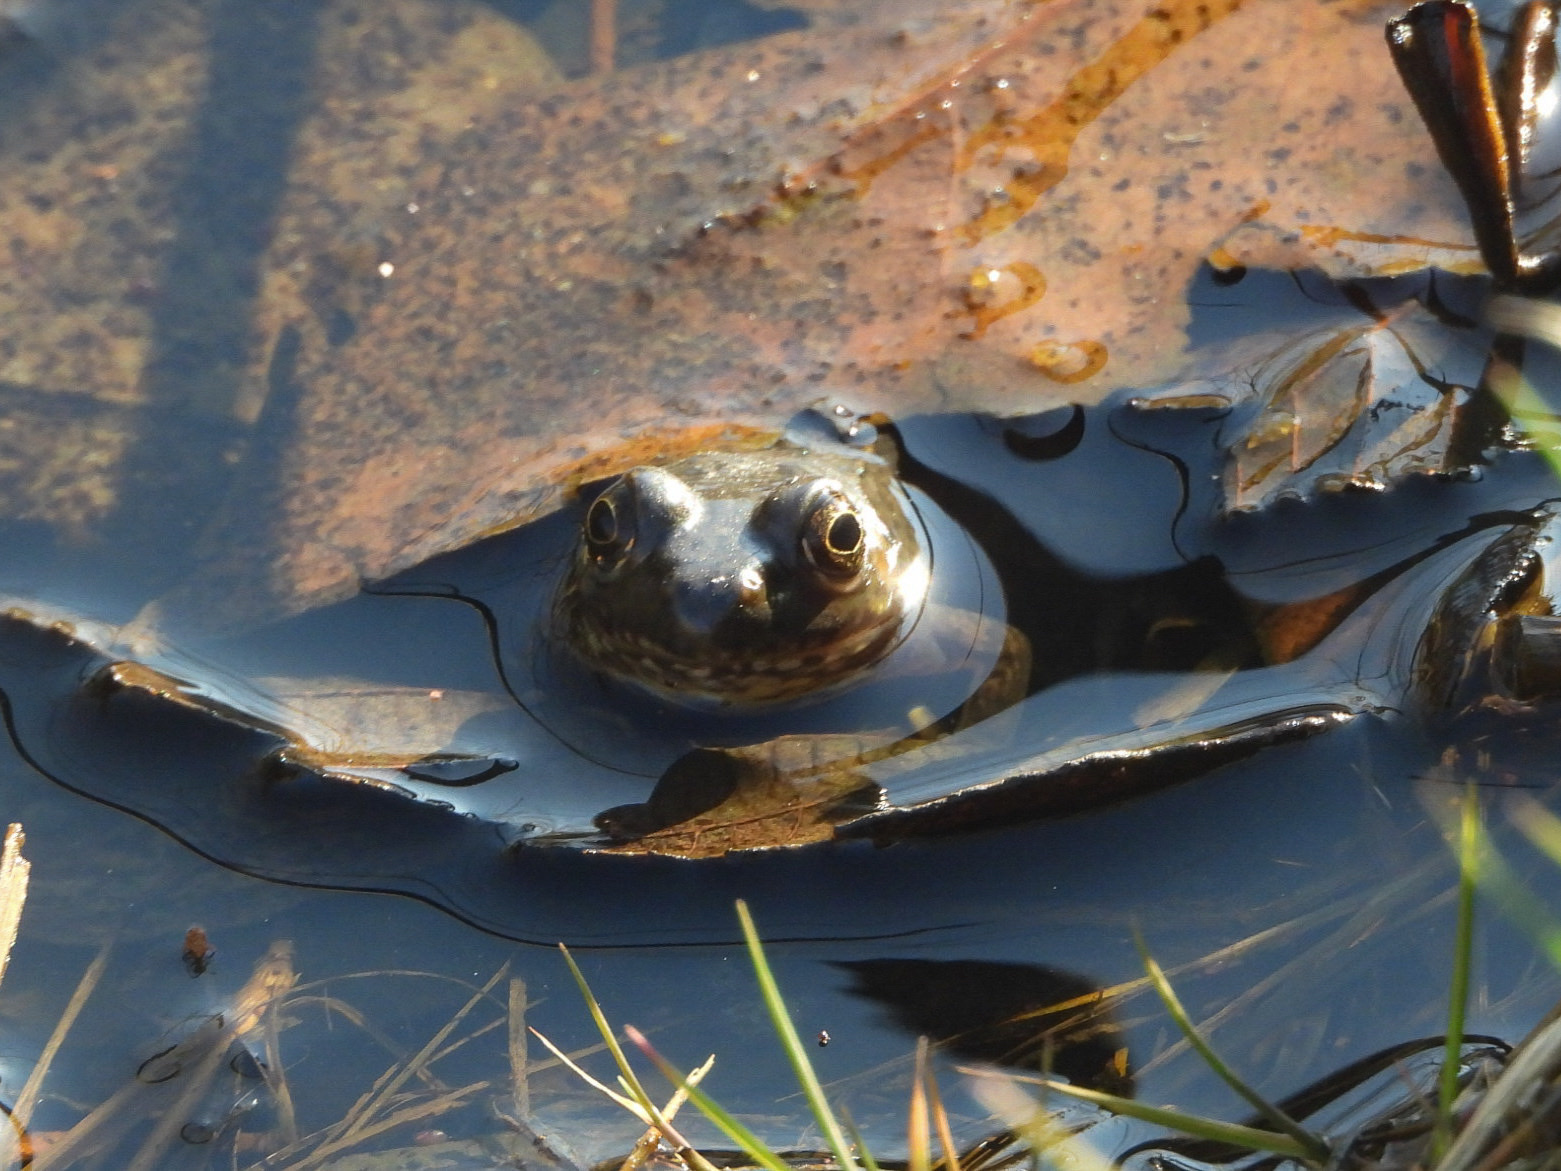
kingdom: Animalia
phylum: Chordata
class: Amphibia
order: Anura
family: Ranidae
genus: Lithobates
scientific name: Lithobates clamitans
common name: Green frog
